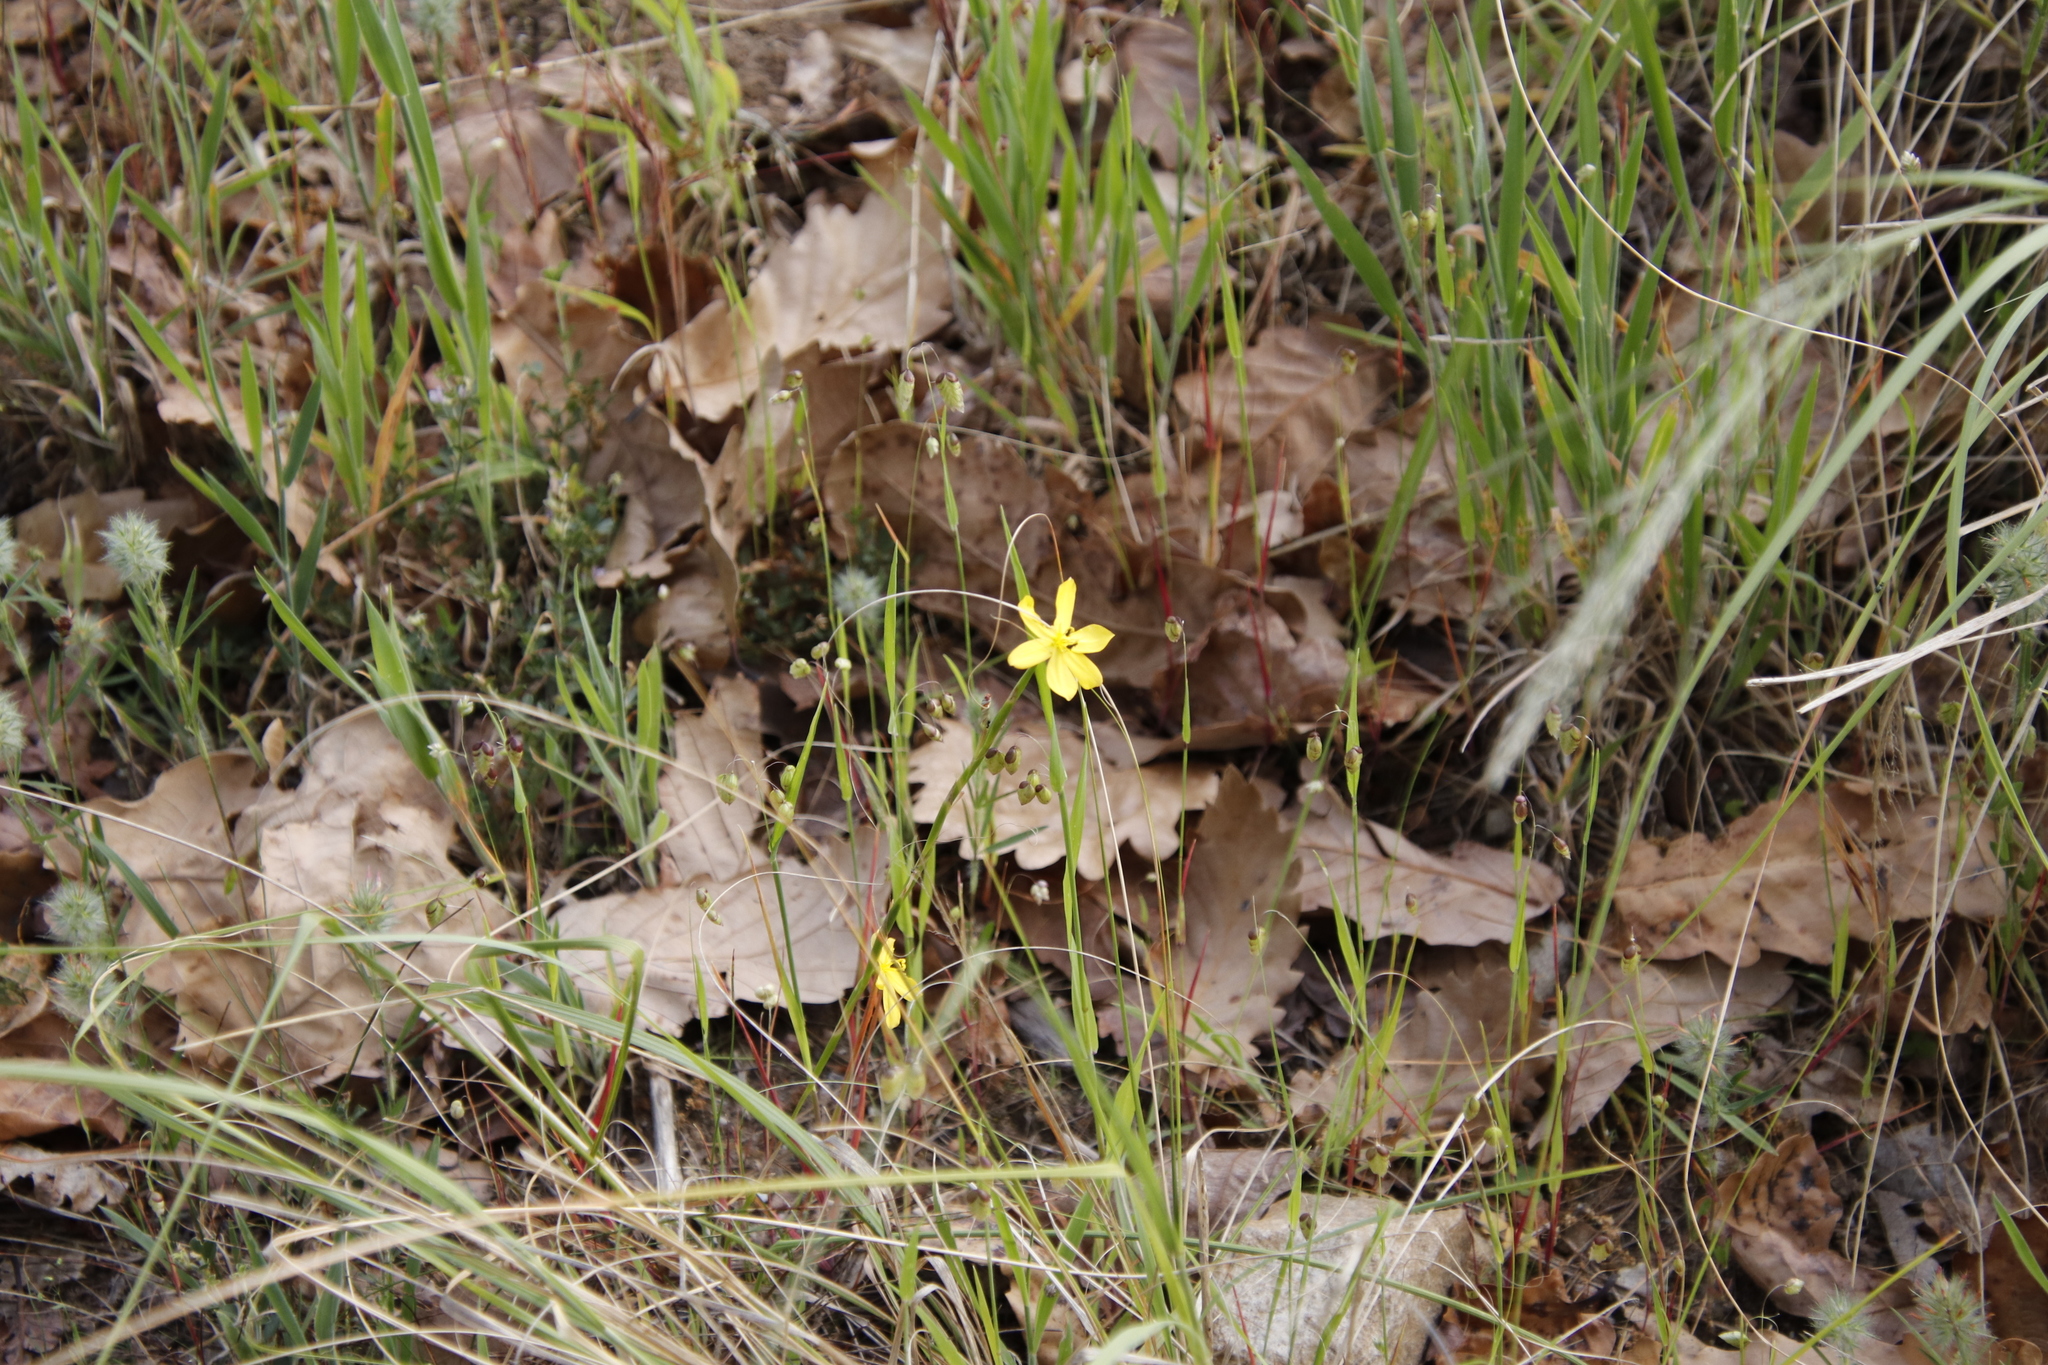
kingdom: Plantae
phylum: Tracheophyta
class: Liliopsida
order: Asparagales
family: Iridaceae
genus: Moraea
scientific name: Moraea lewisiae
